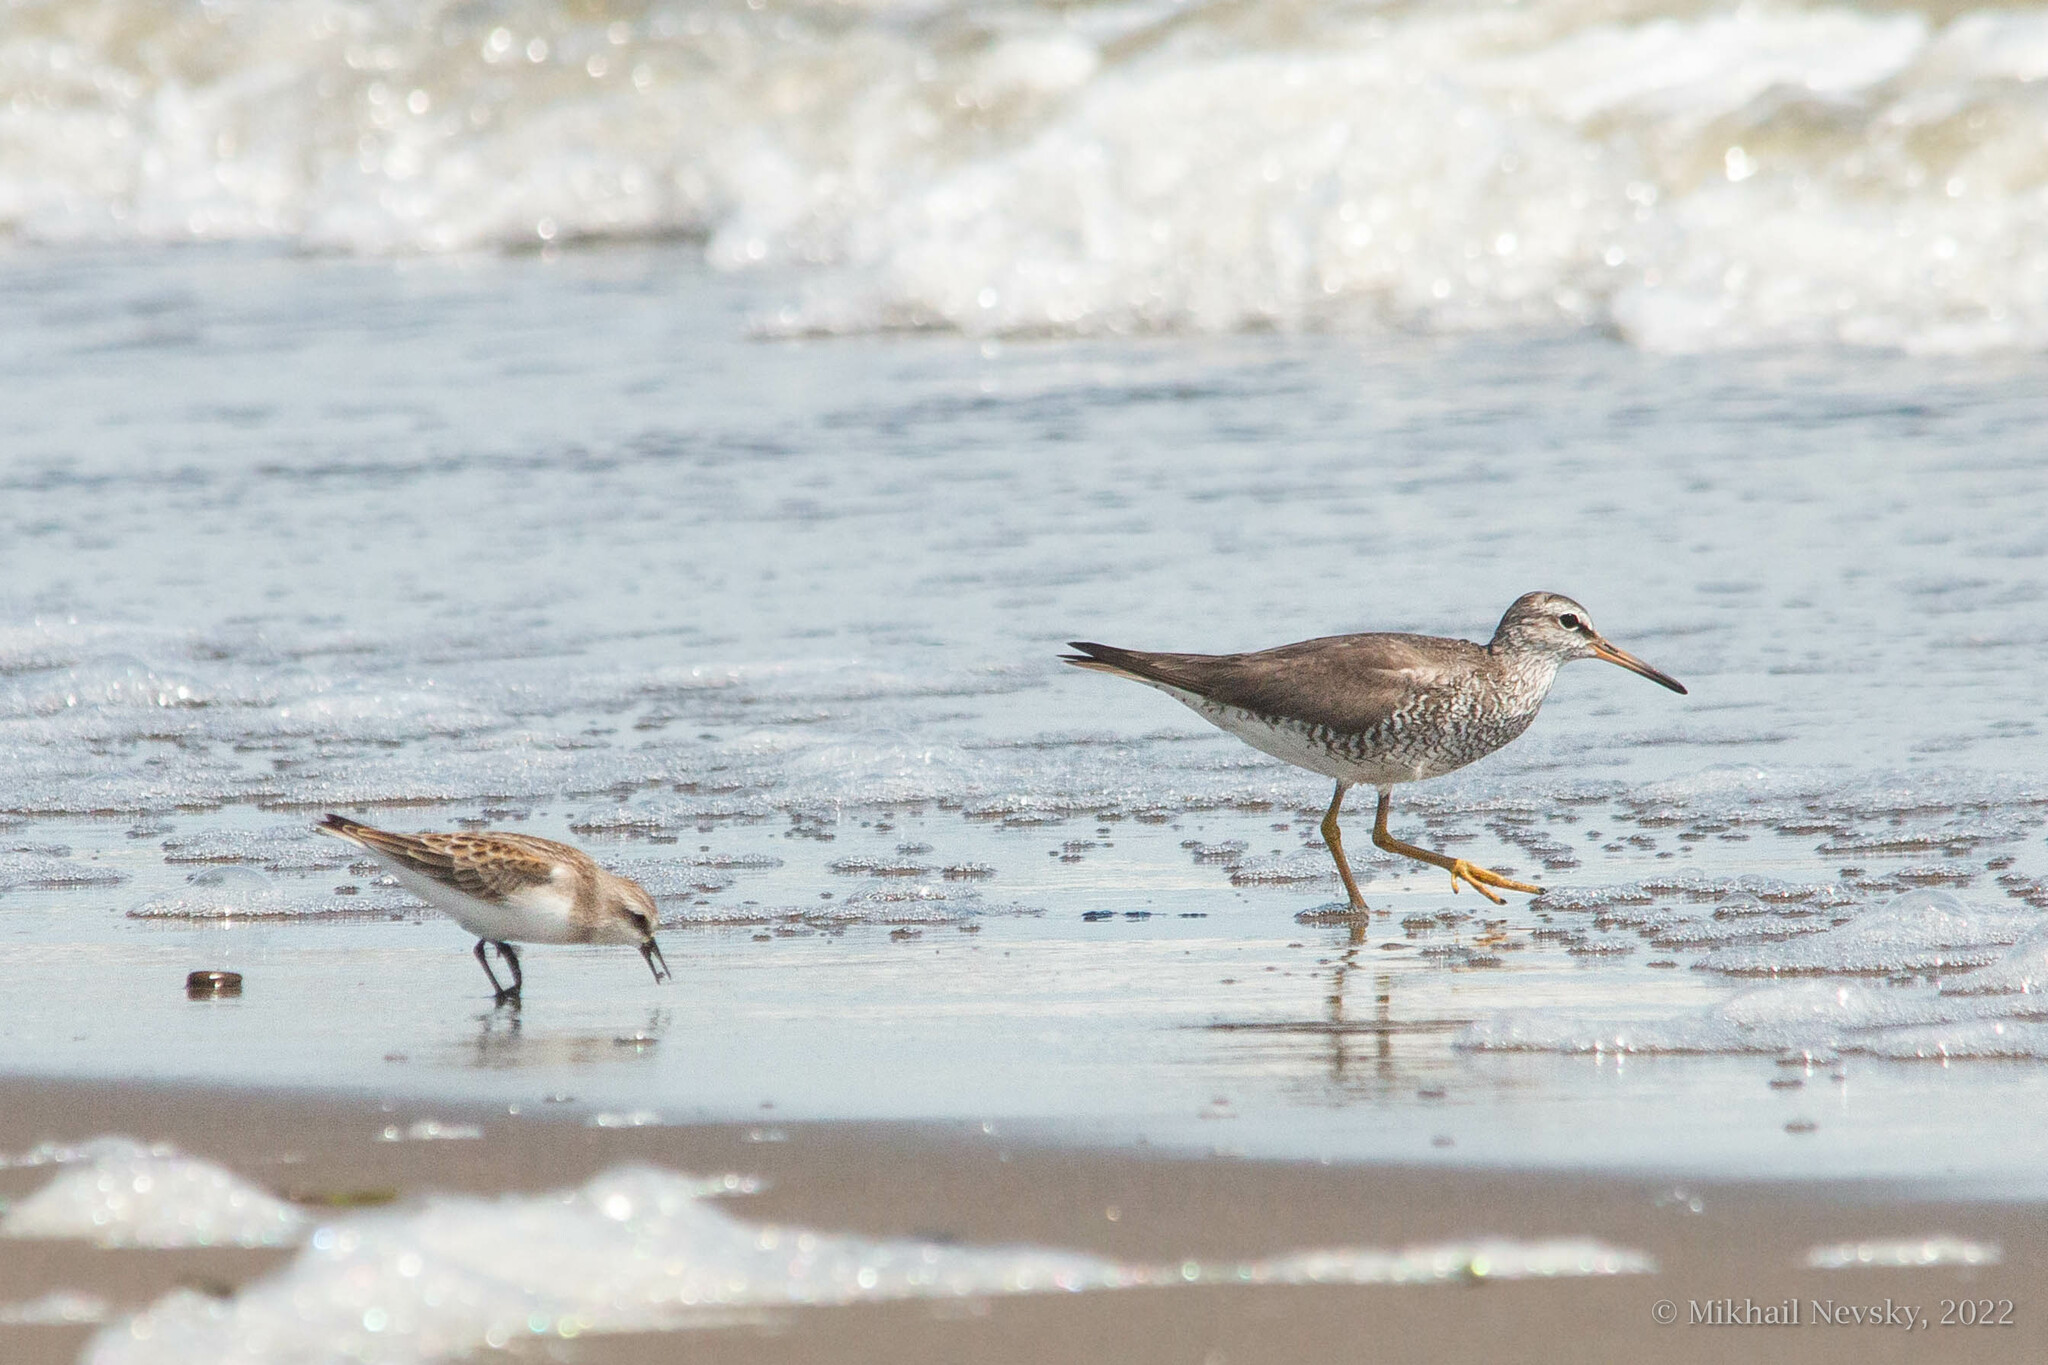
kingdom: Animalia
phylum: Chordata
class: Aves
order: Charadriiformes
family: Scolopacidae
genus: Tringa
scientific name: Tringa brevipes
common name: Grey-tailed tattler
